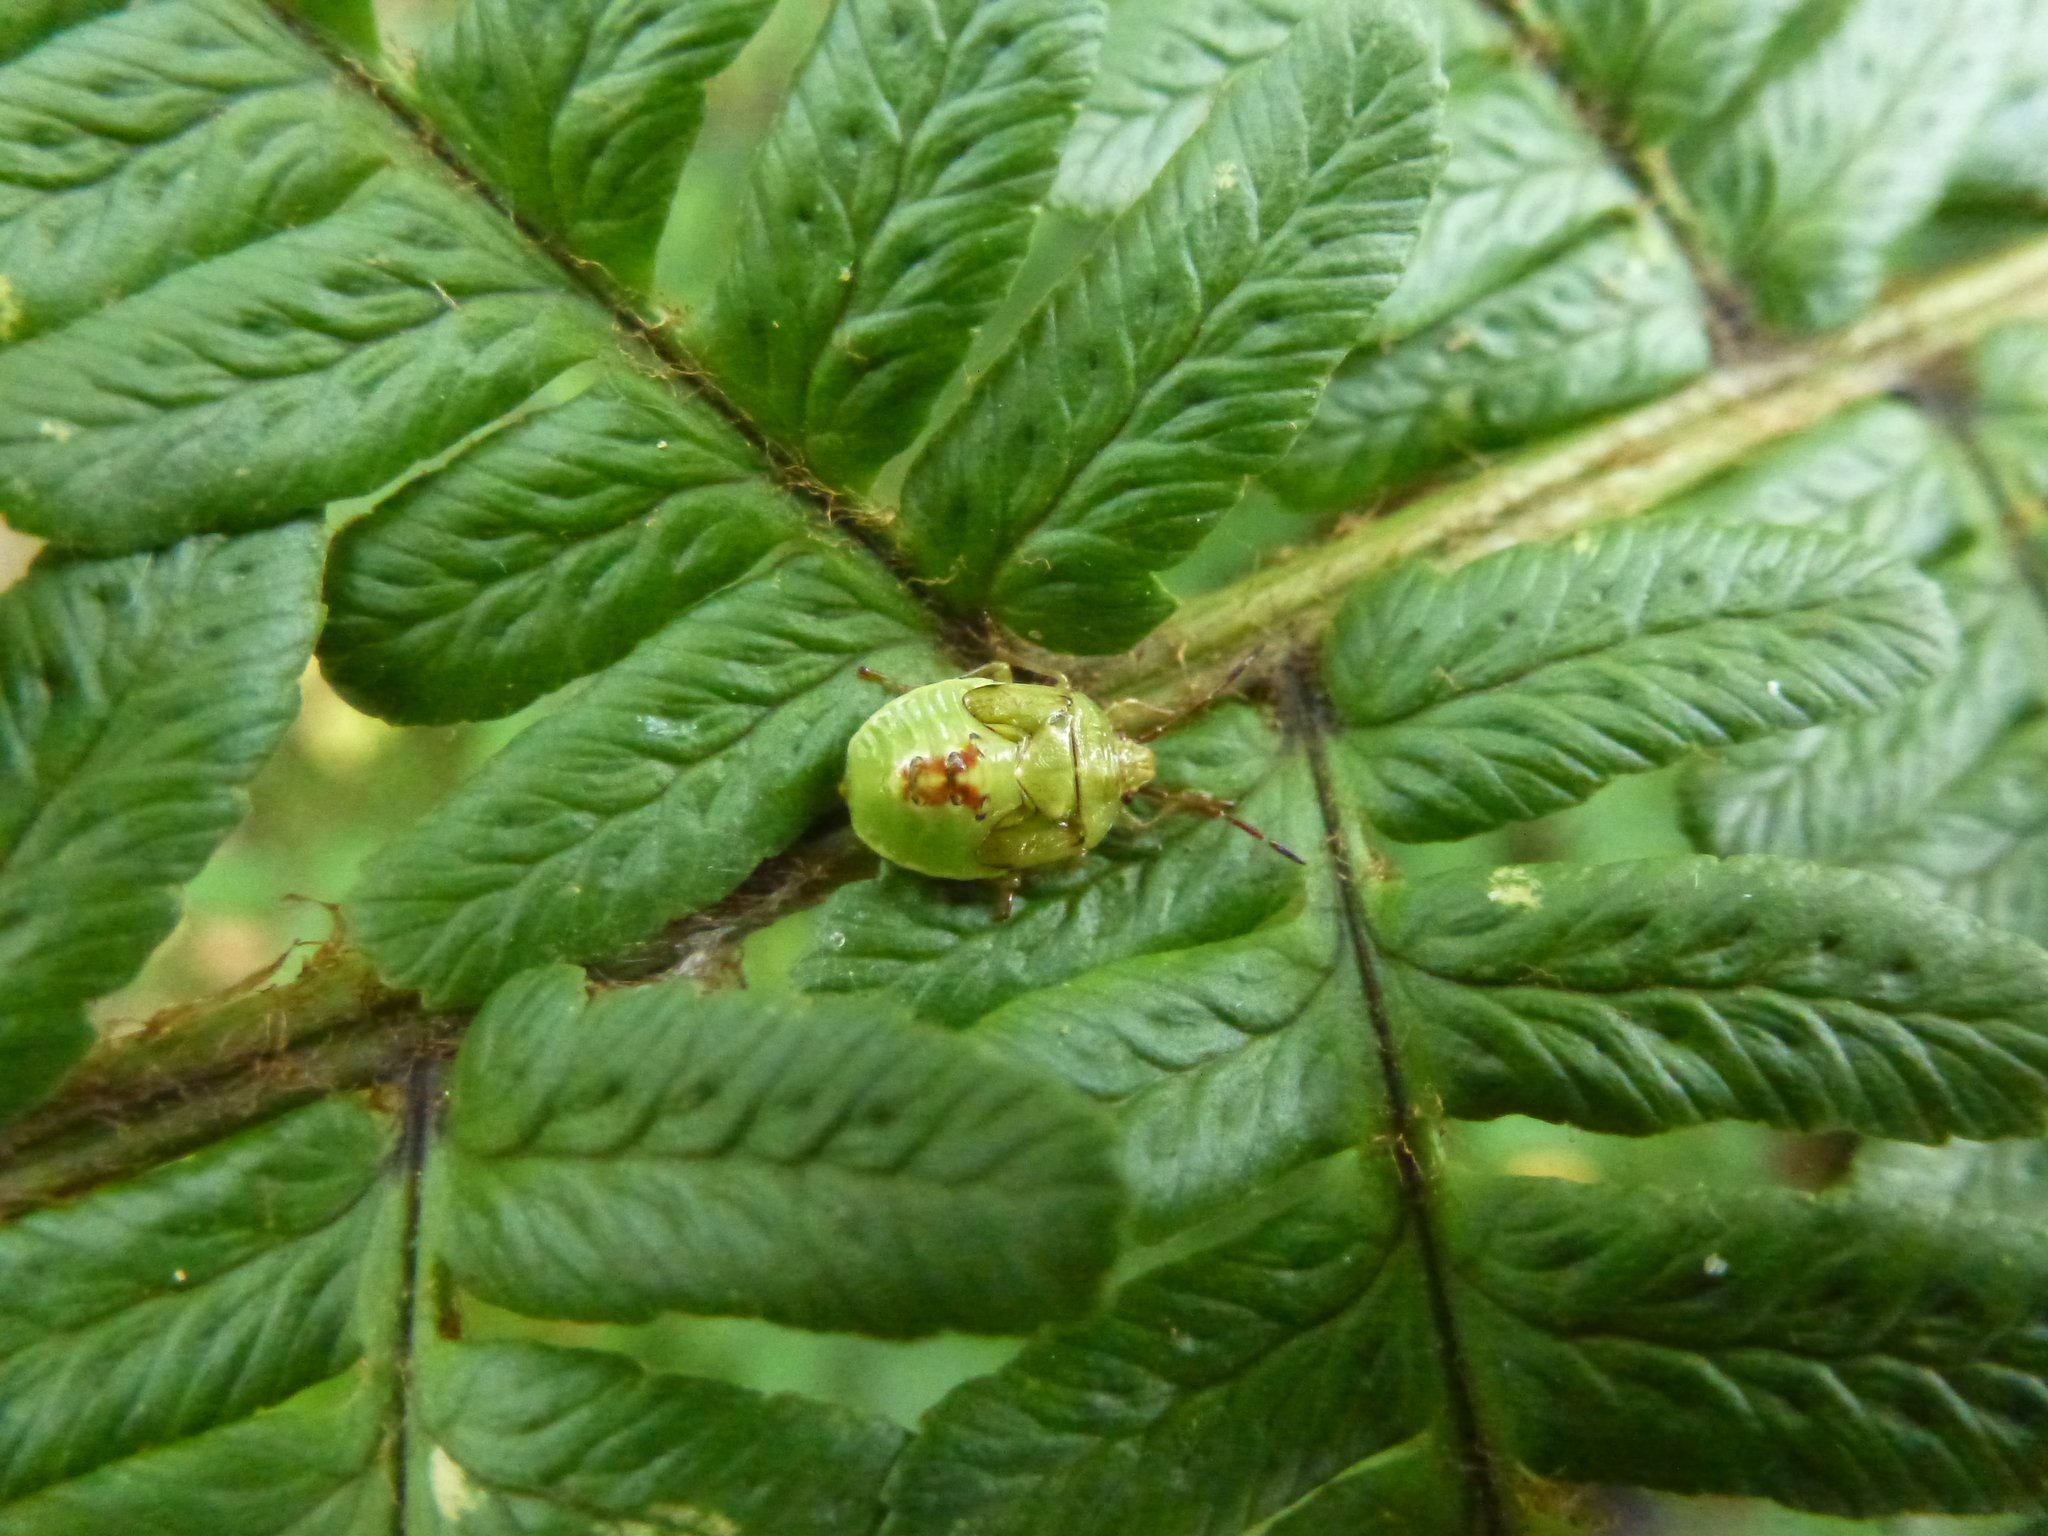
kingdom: Animalia
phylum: Arthropoda
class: Insecta
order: Hemiptera
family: Acanthosomatidae
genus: Elasmostethus
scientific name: Elasmostethus interstinctus
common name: Birch shieldbug
